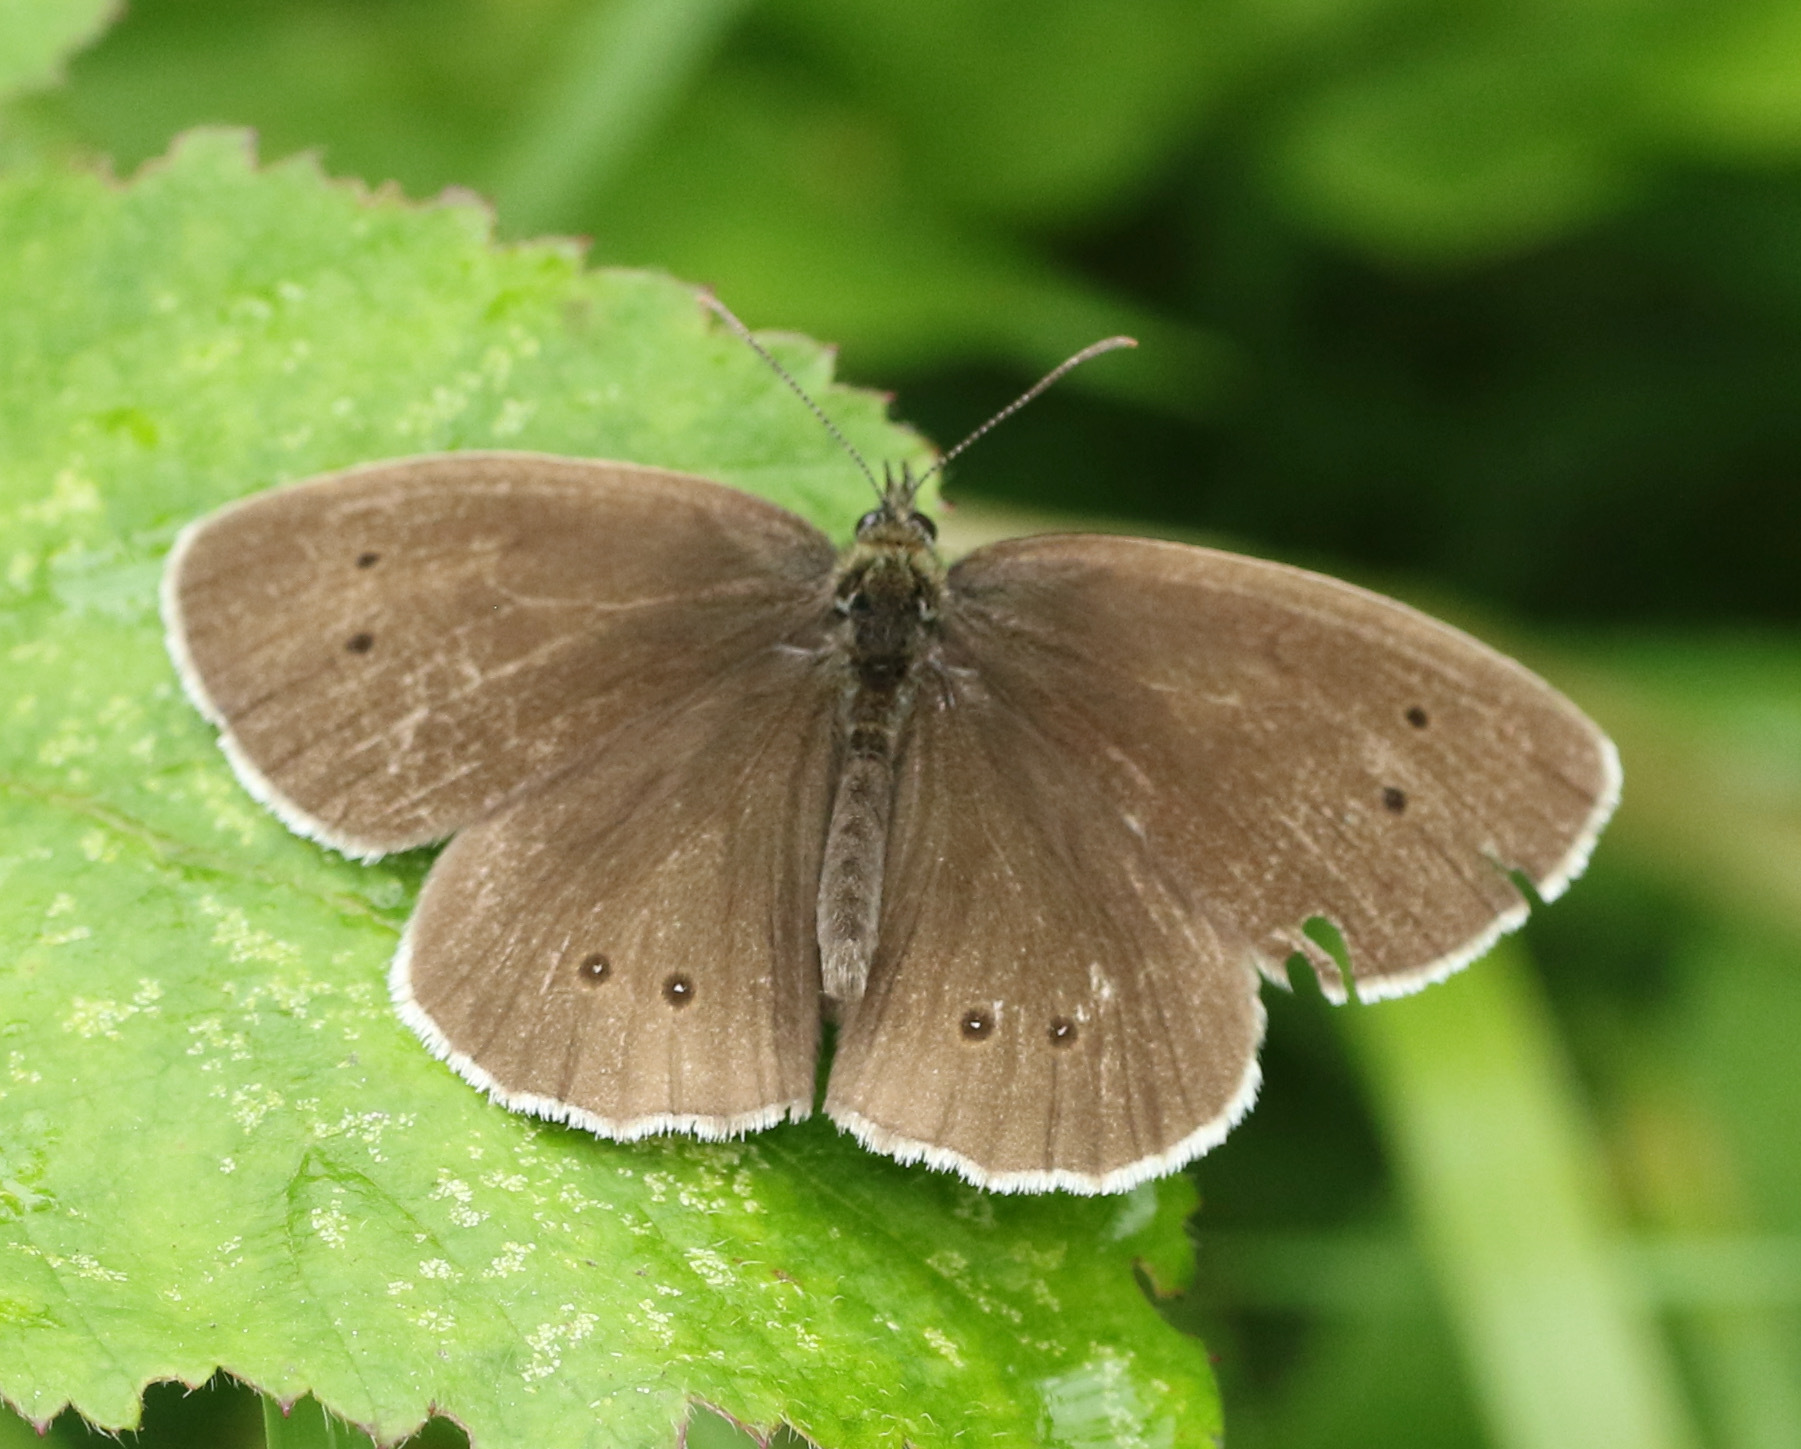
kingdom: Animalia
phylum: Arthropoda
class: Insecta
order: Lepidoptera
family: Nymphalidae
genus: Aphantopus
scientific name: Aphantopus hyperantus
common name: Ringlet
